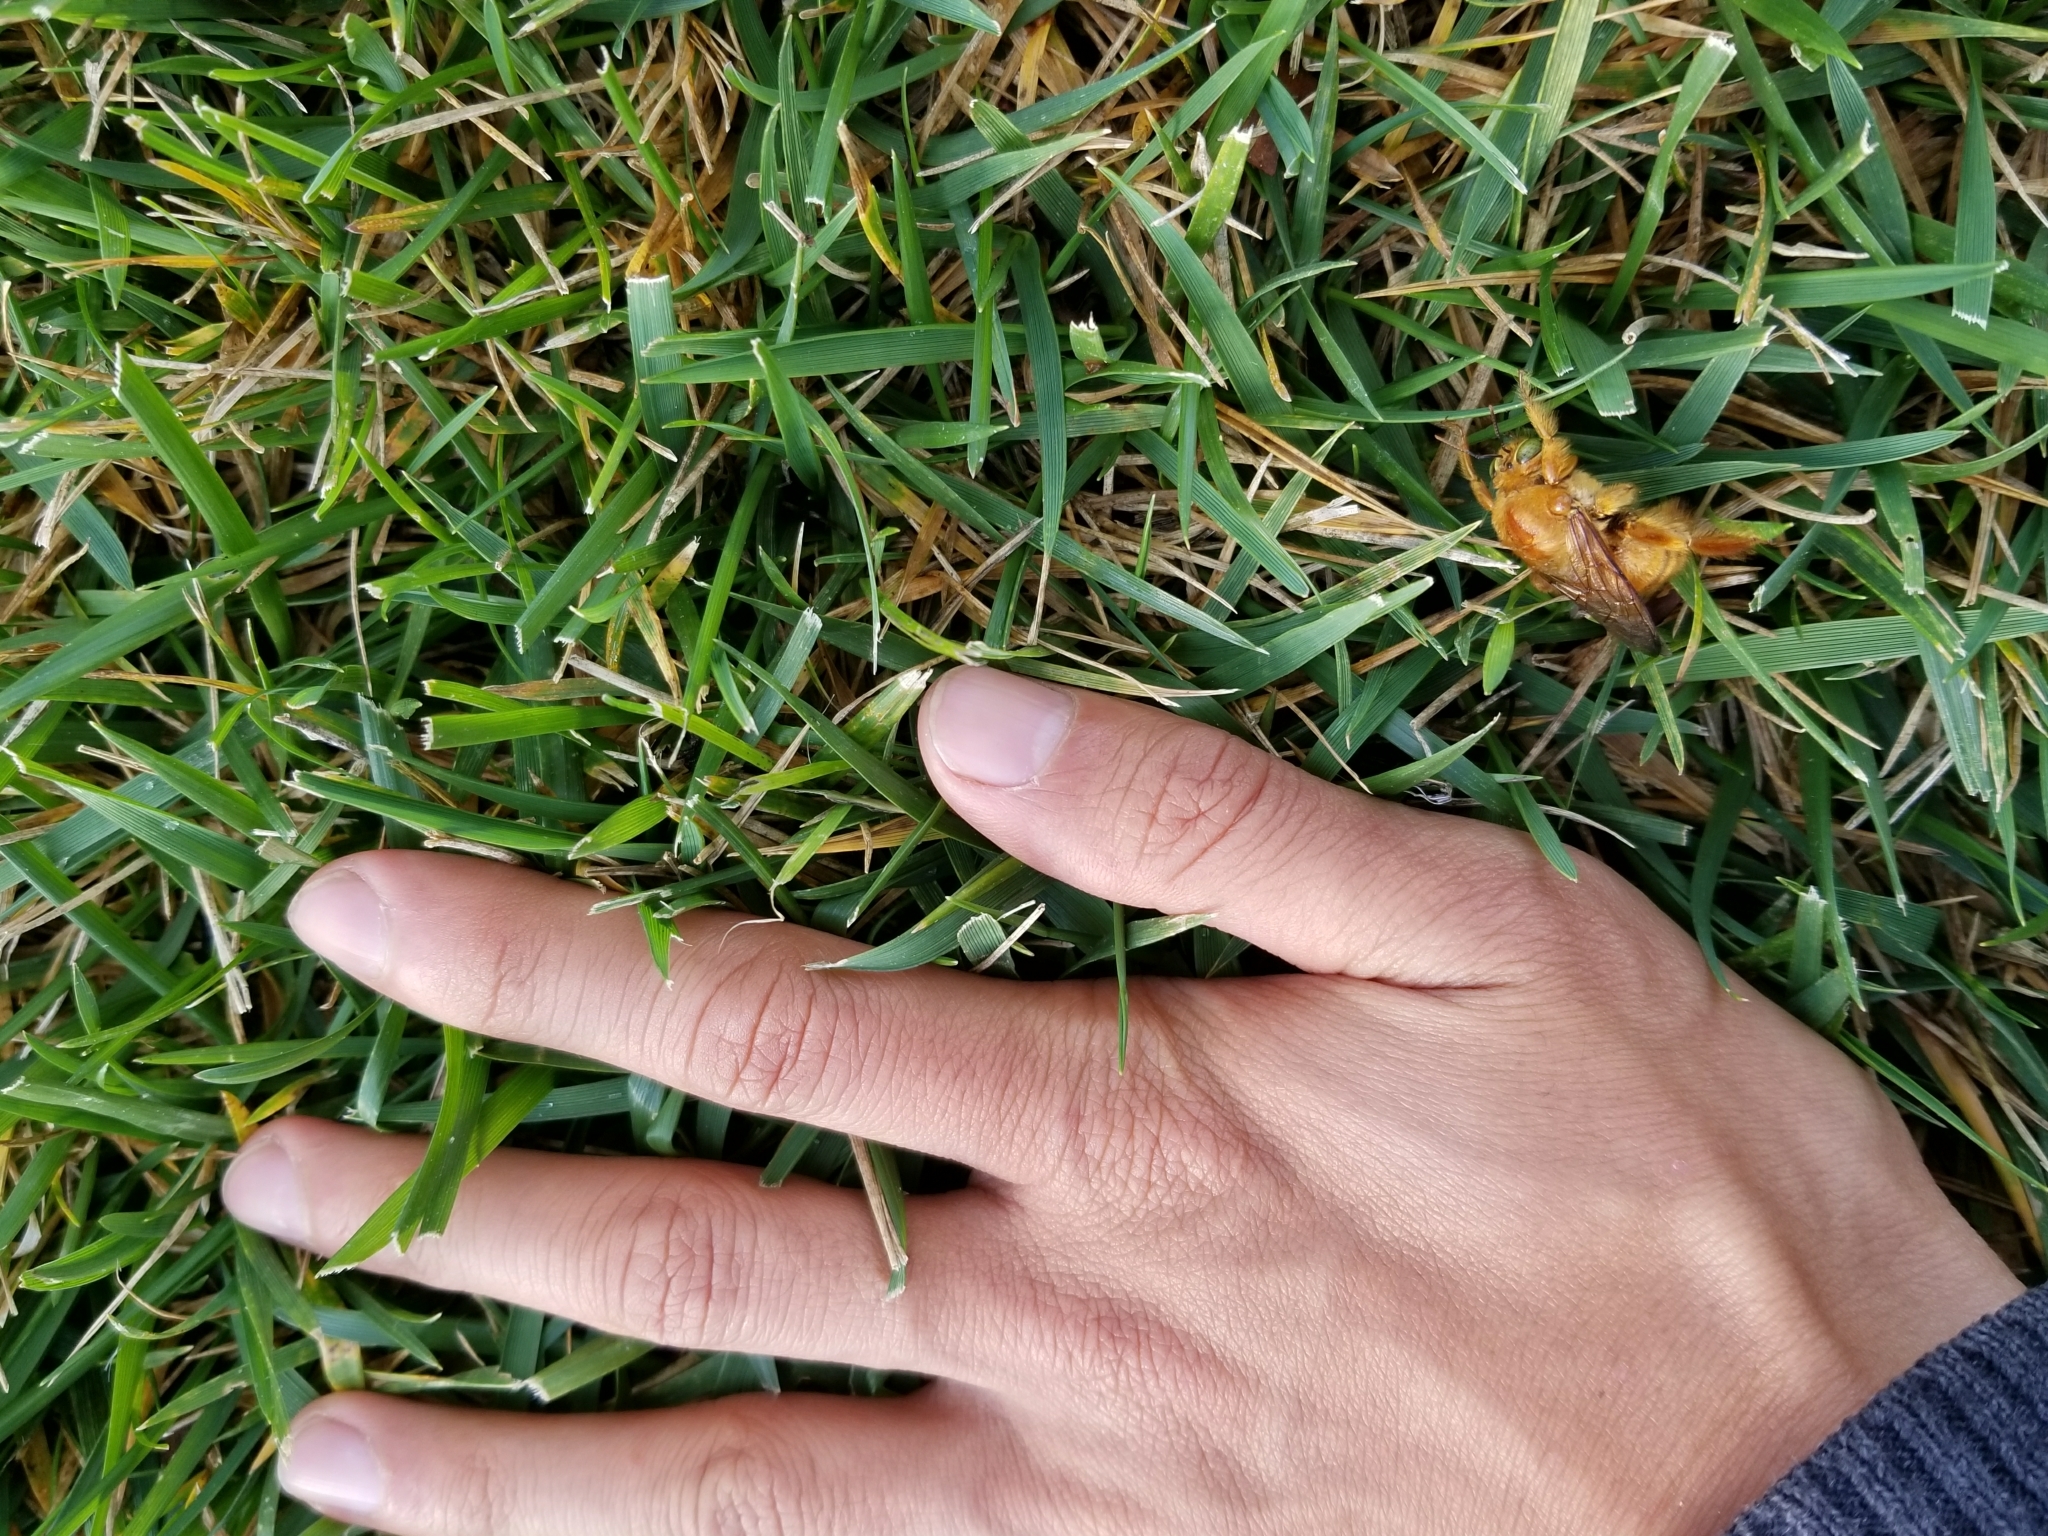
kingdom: Animalia
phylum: Arthropoda
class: Insecta
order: Hymenoptera
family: Apidae
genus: Xylocopa
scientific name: Xylocopa sonorina
